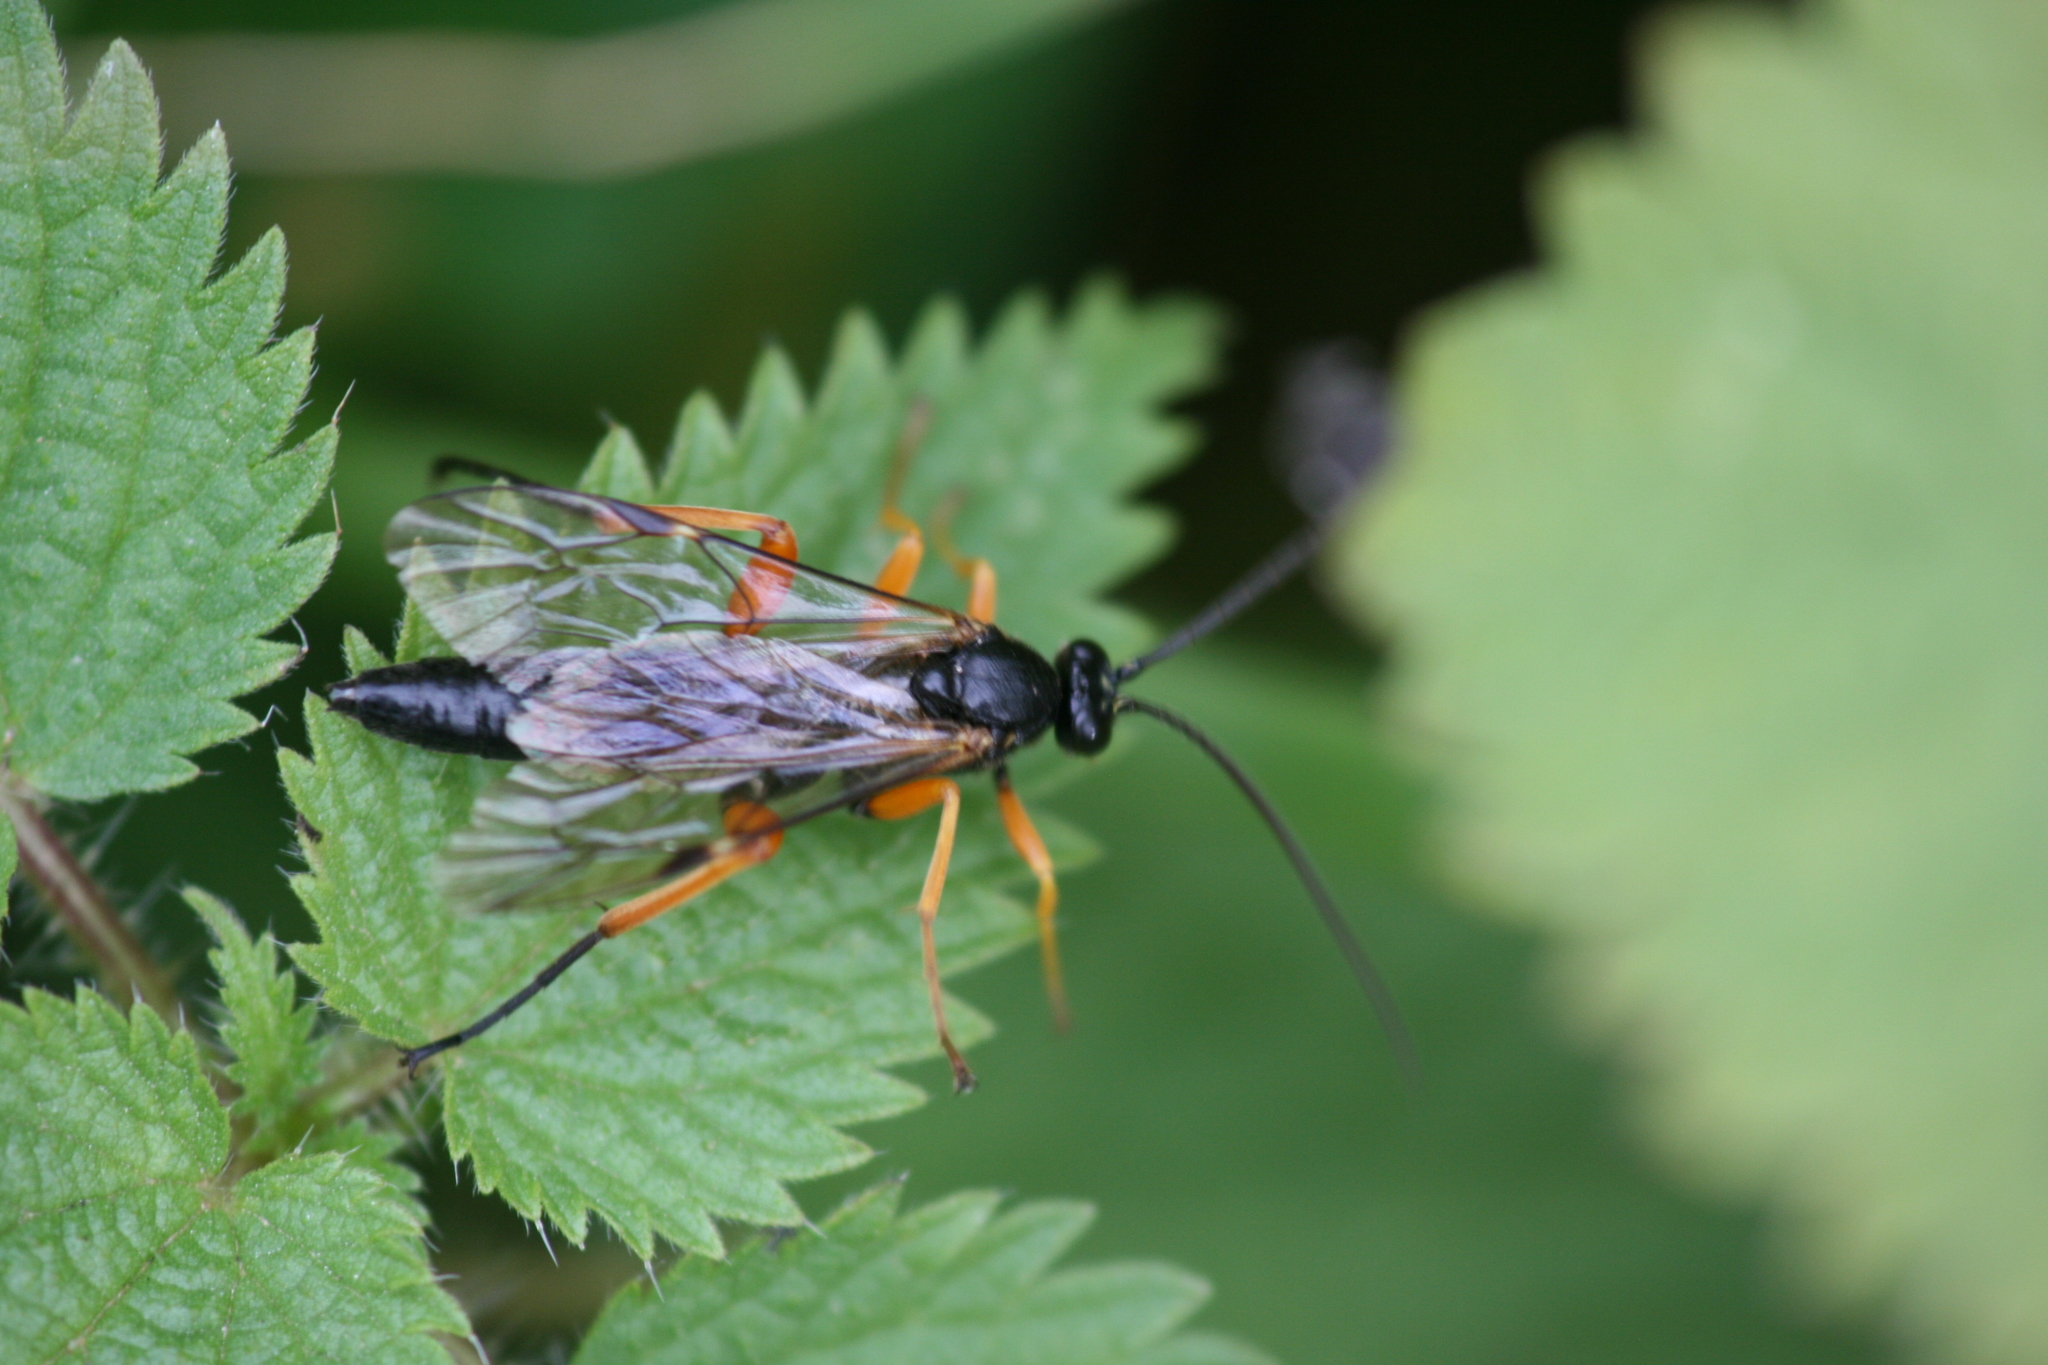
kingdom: Animalia
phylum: Arthropoda
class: Insecta
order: Hymenoptera
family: Ichneumonidae
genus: Pimpla
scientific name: Pimpla rufipes
